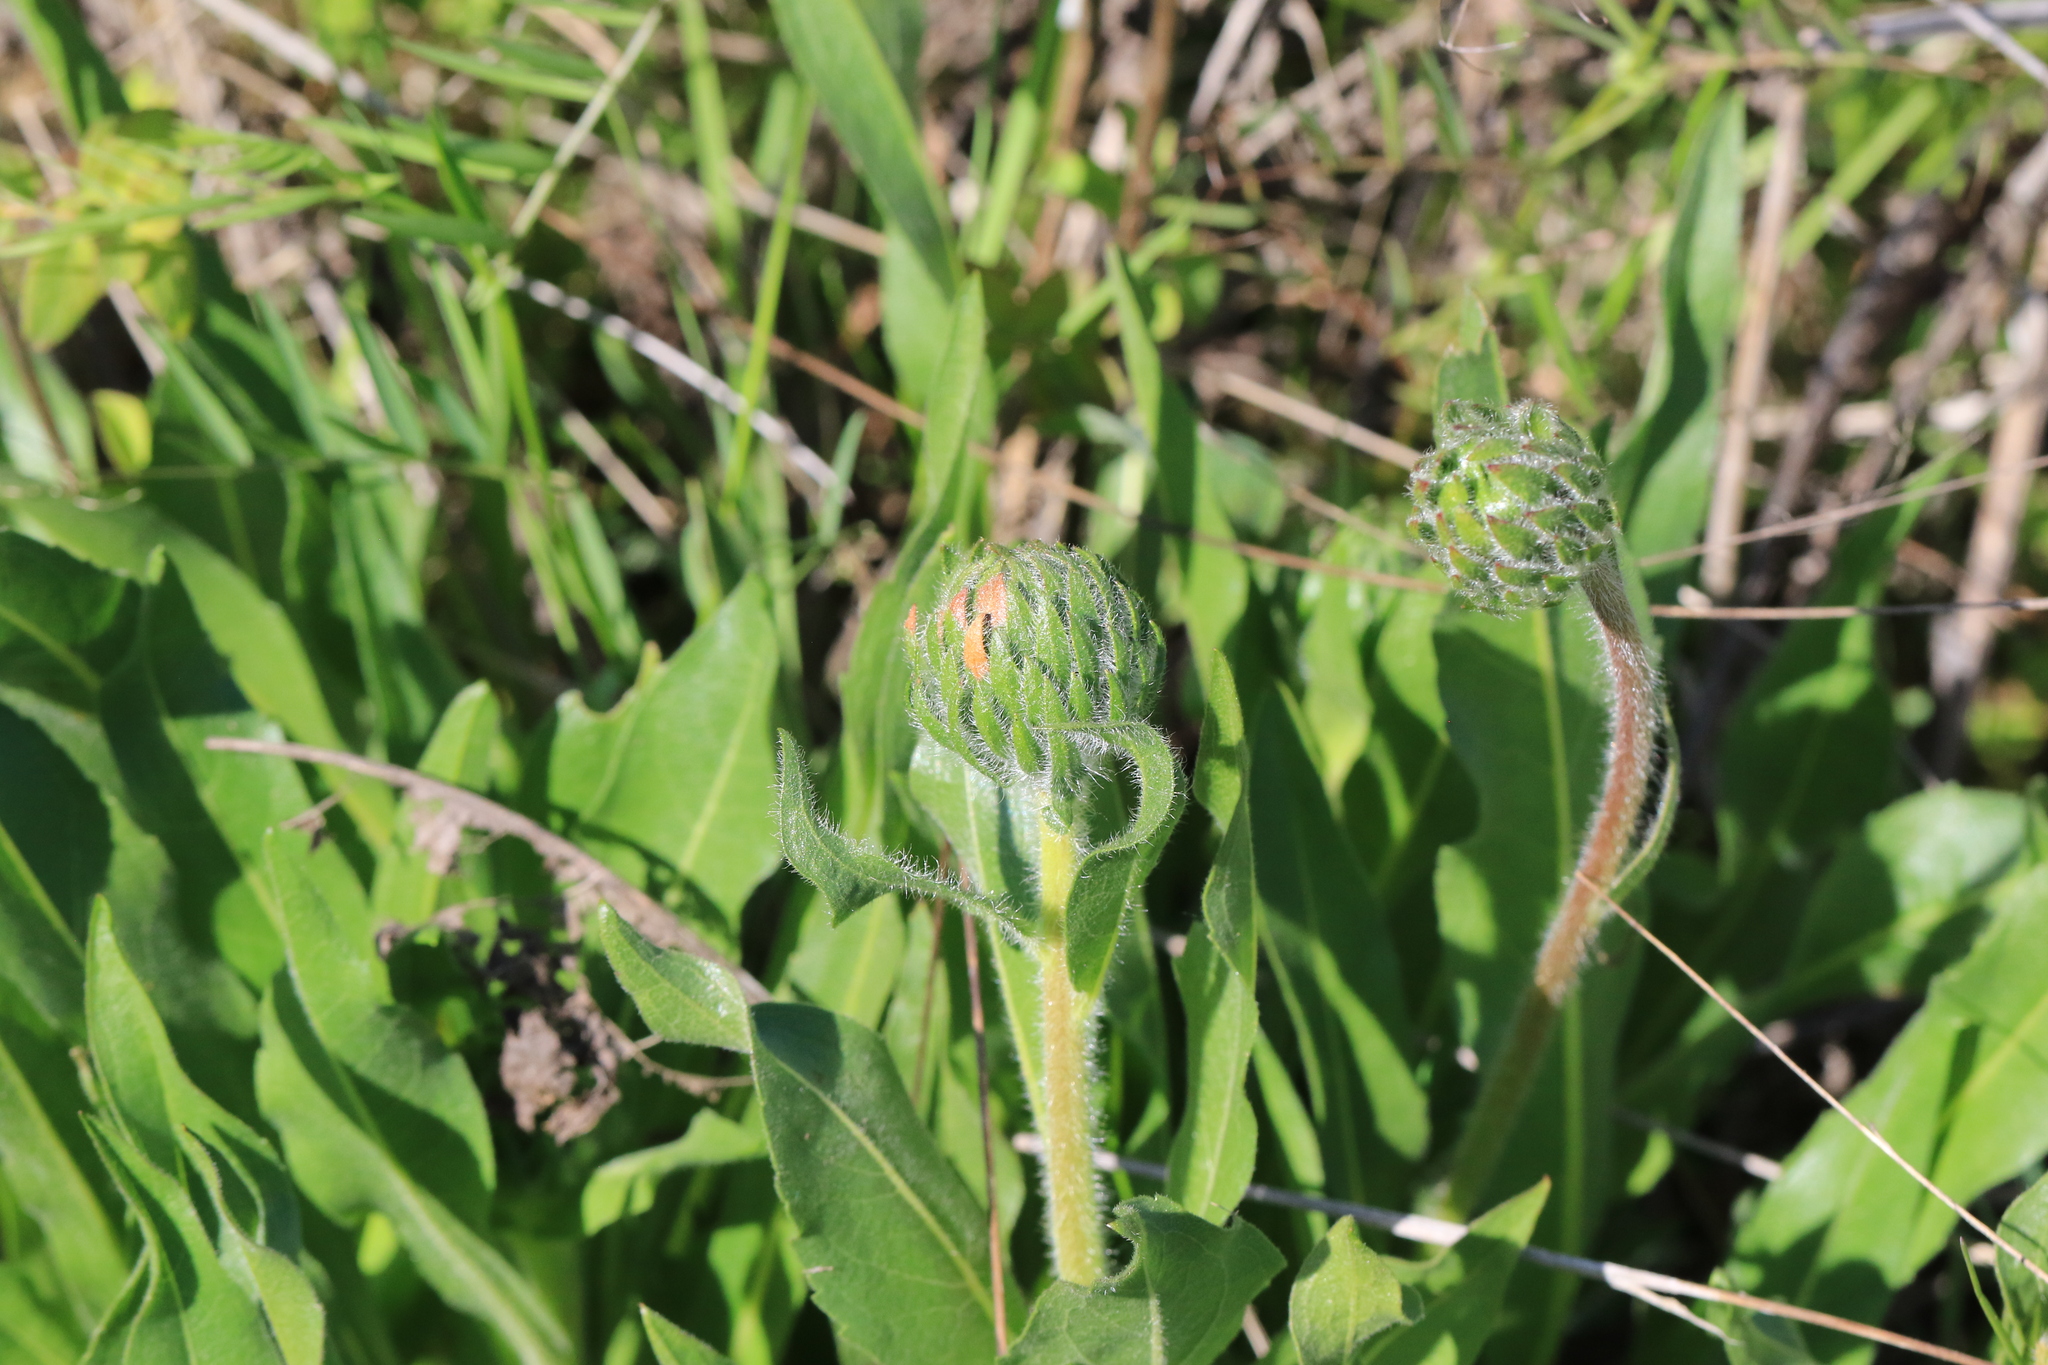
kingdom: Plantae
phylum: Tracheophyta
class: Magnoliopsida
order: Asterales
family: Asteraceae
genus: Wyethia
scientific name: Wyethia angustifolia
